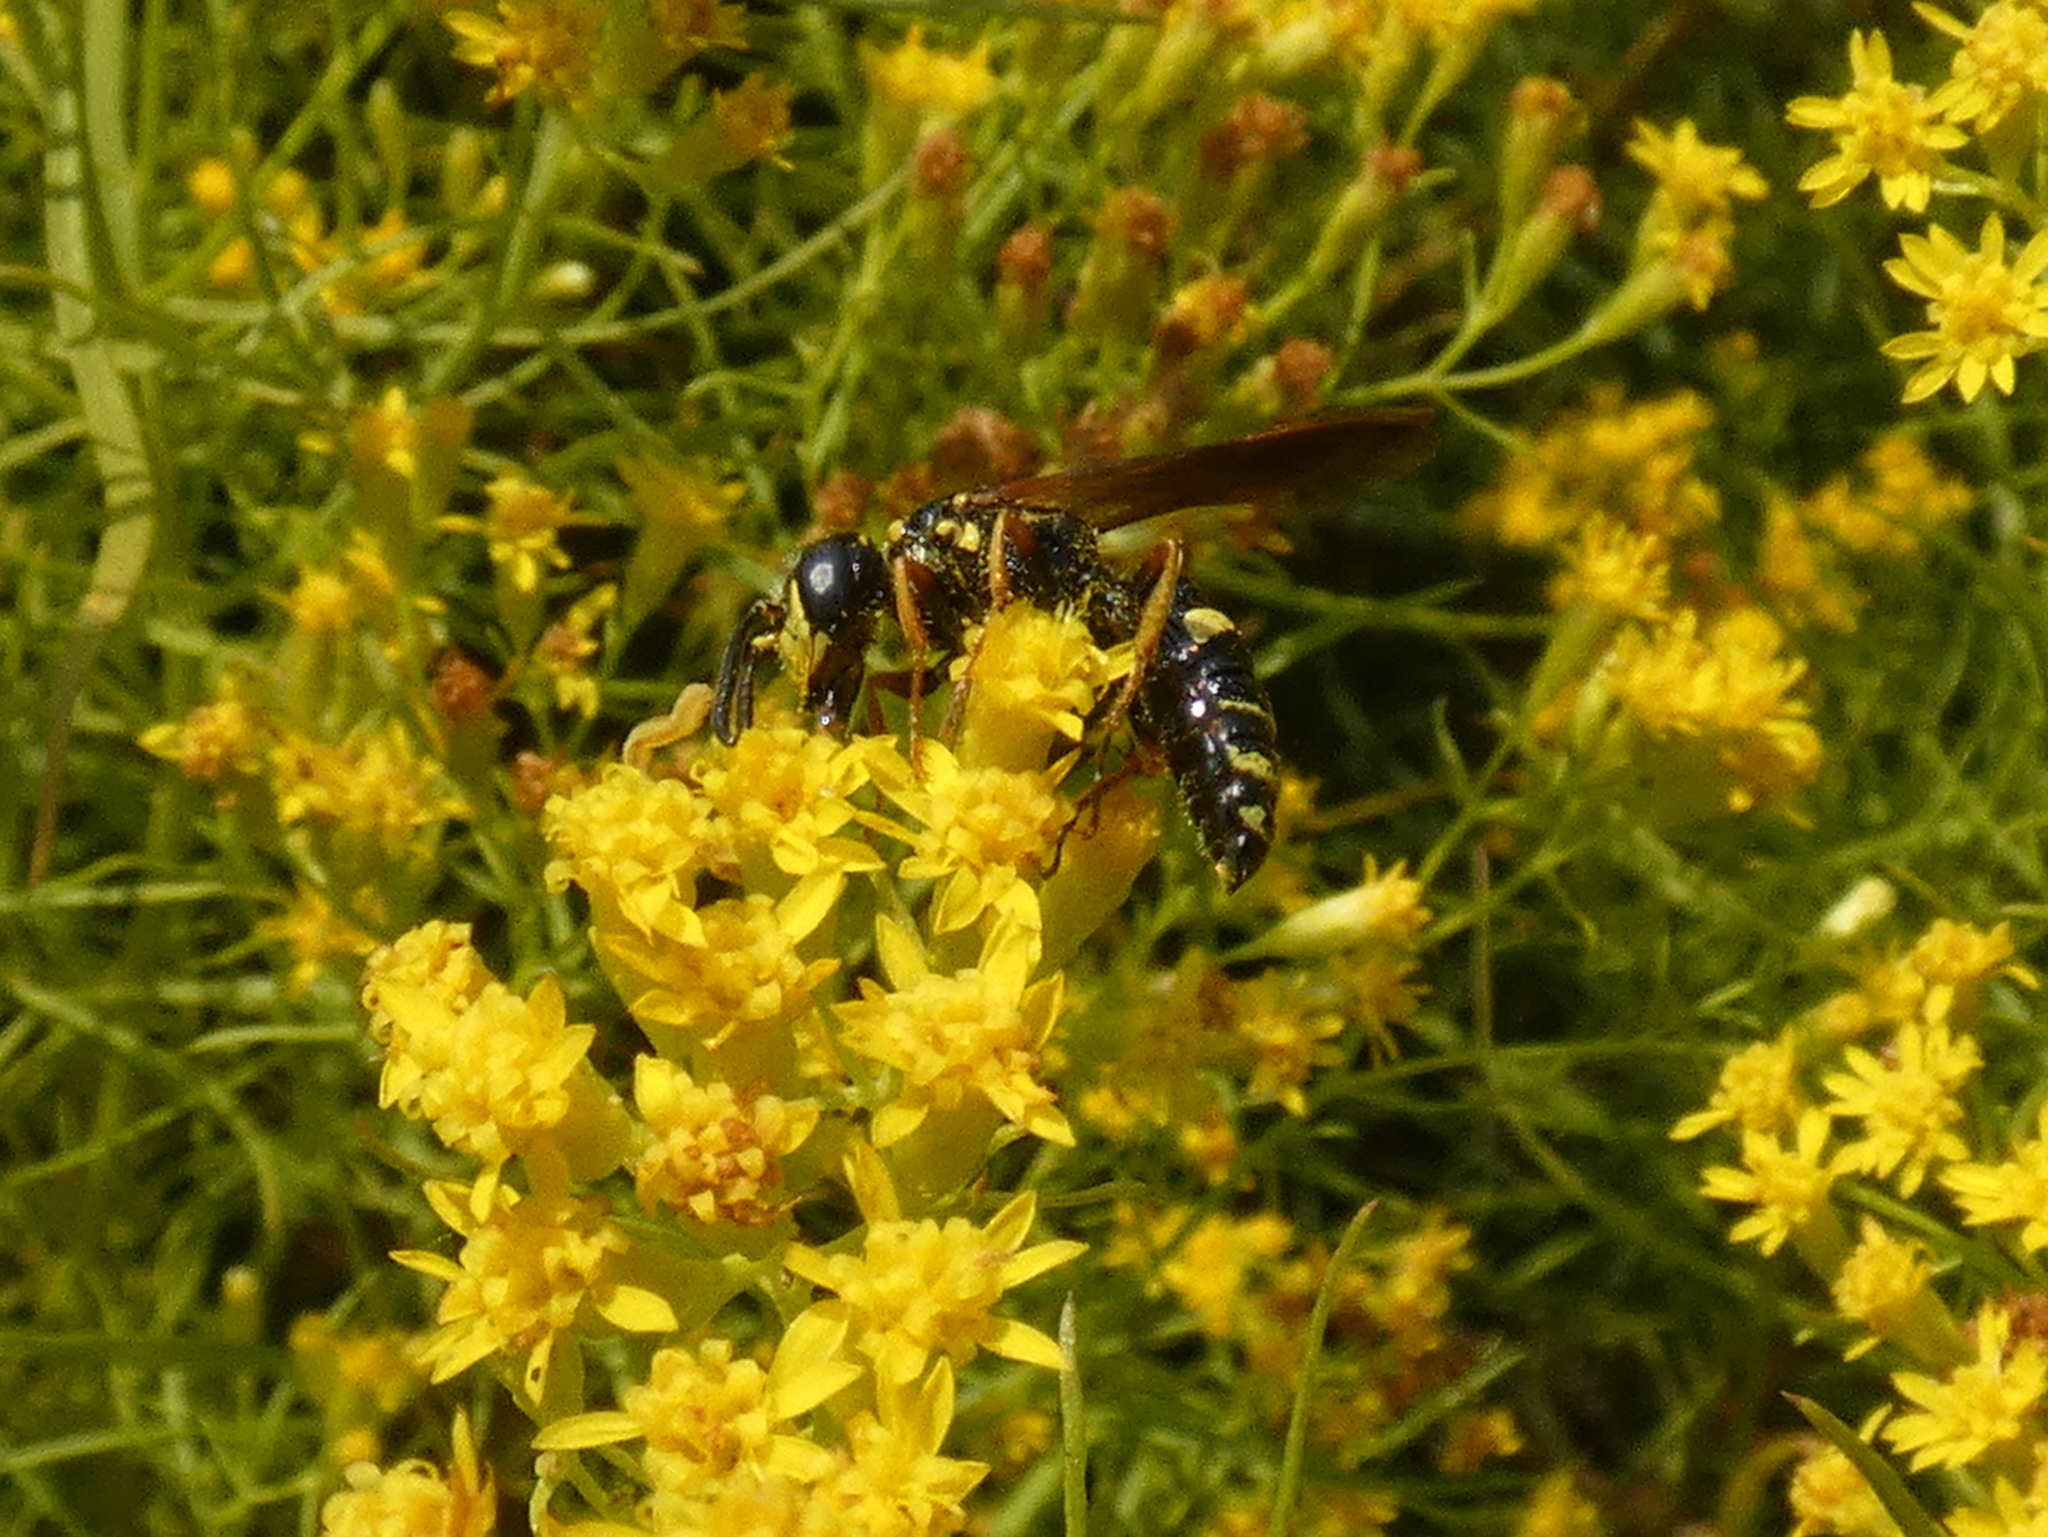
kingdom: Animalia
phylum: Arthropoda
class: Insecta
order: Hymenoptera
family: Crabronidae
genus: Philanthus
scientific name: Philanthus gibbosus
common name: Humped beewolf
